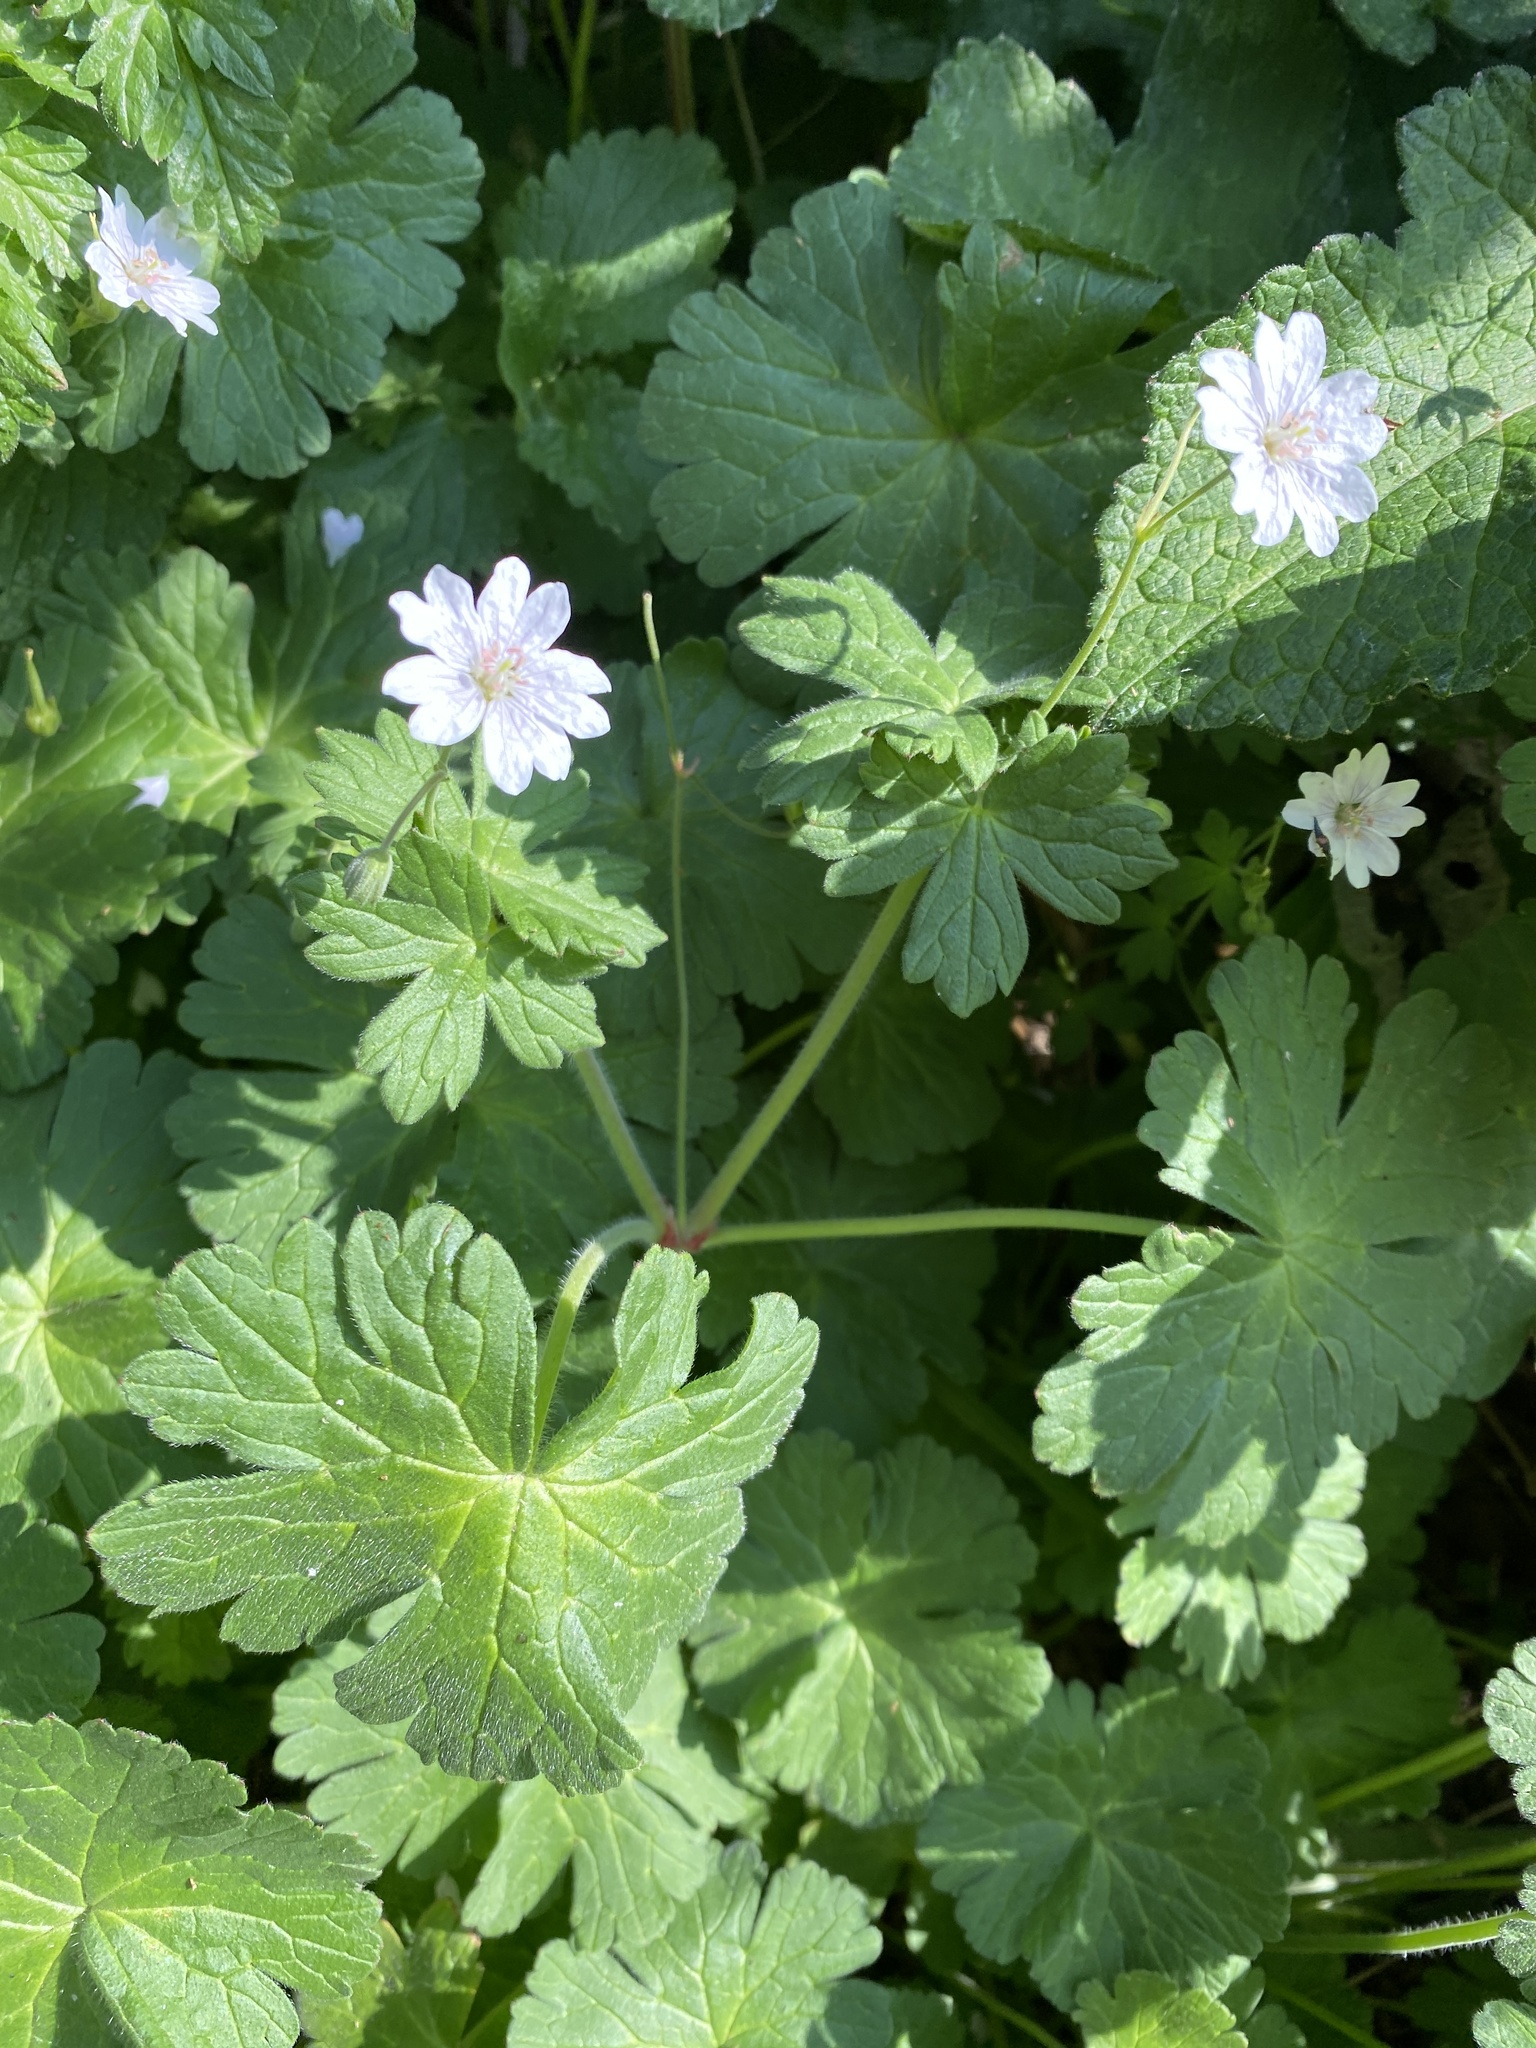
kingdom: Plantae
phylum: Tracheophyta
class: Magnoliopsida
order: Geraniales
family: Geraniaceae
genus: Geranium
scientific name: Geranium pyrenaicum
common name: Hedgerow crane's-bill
